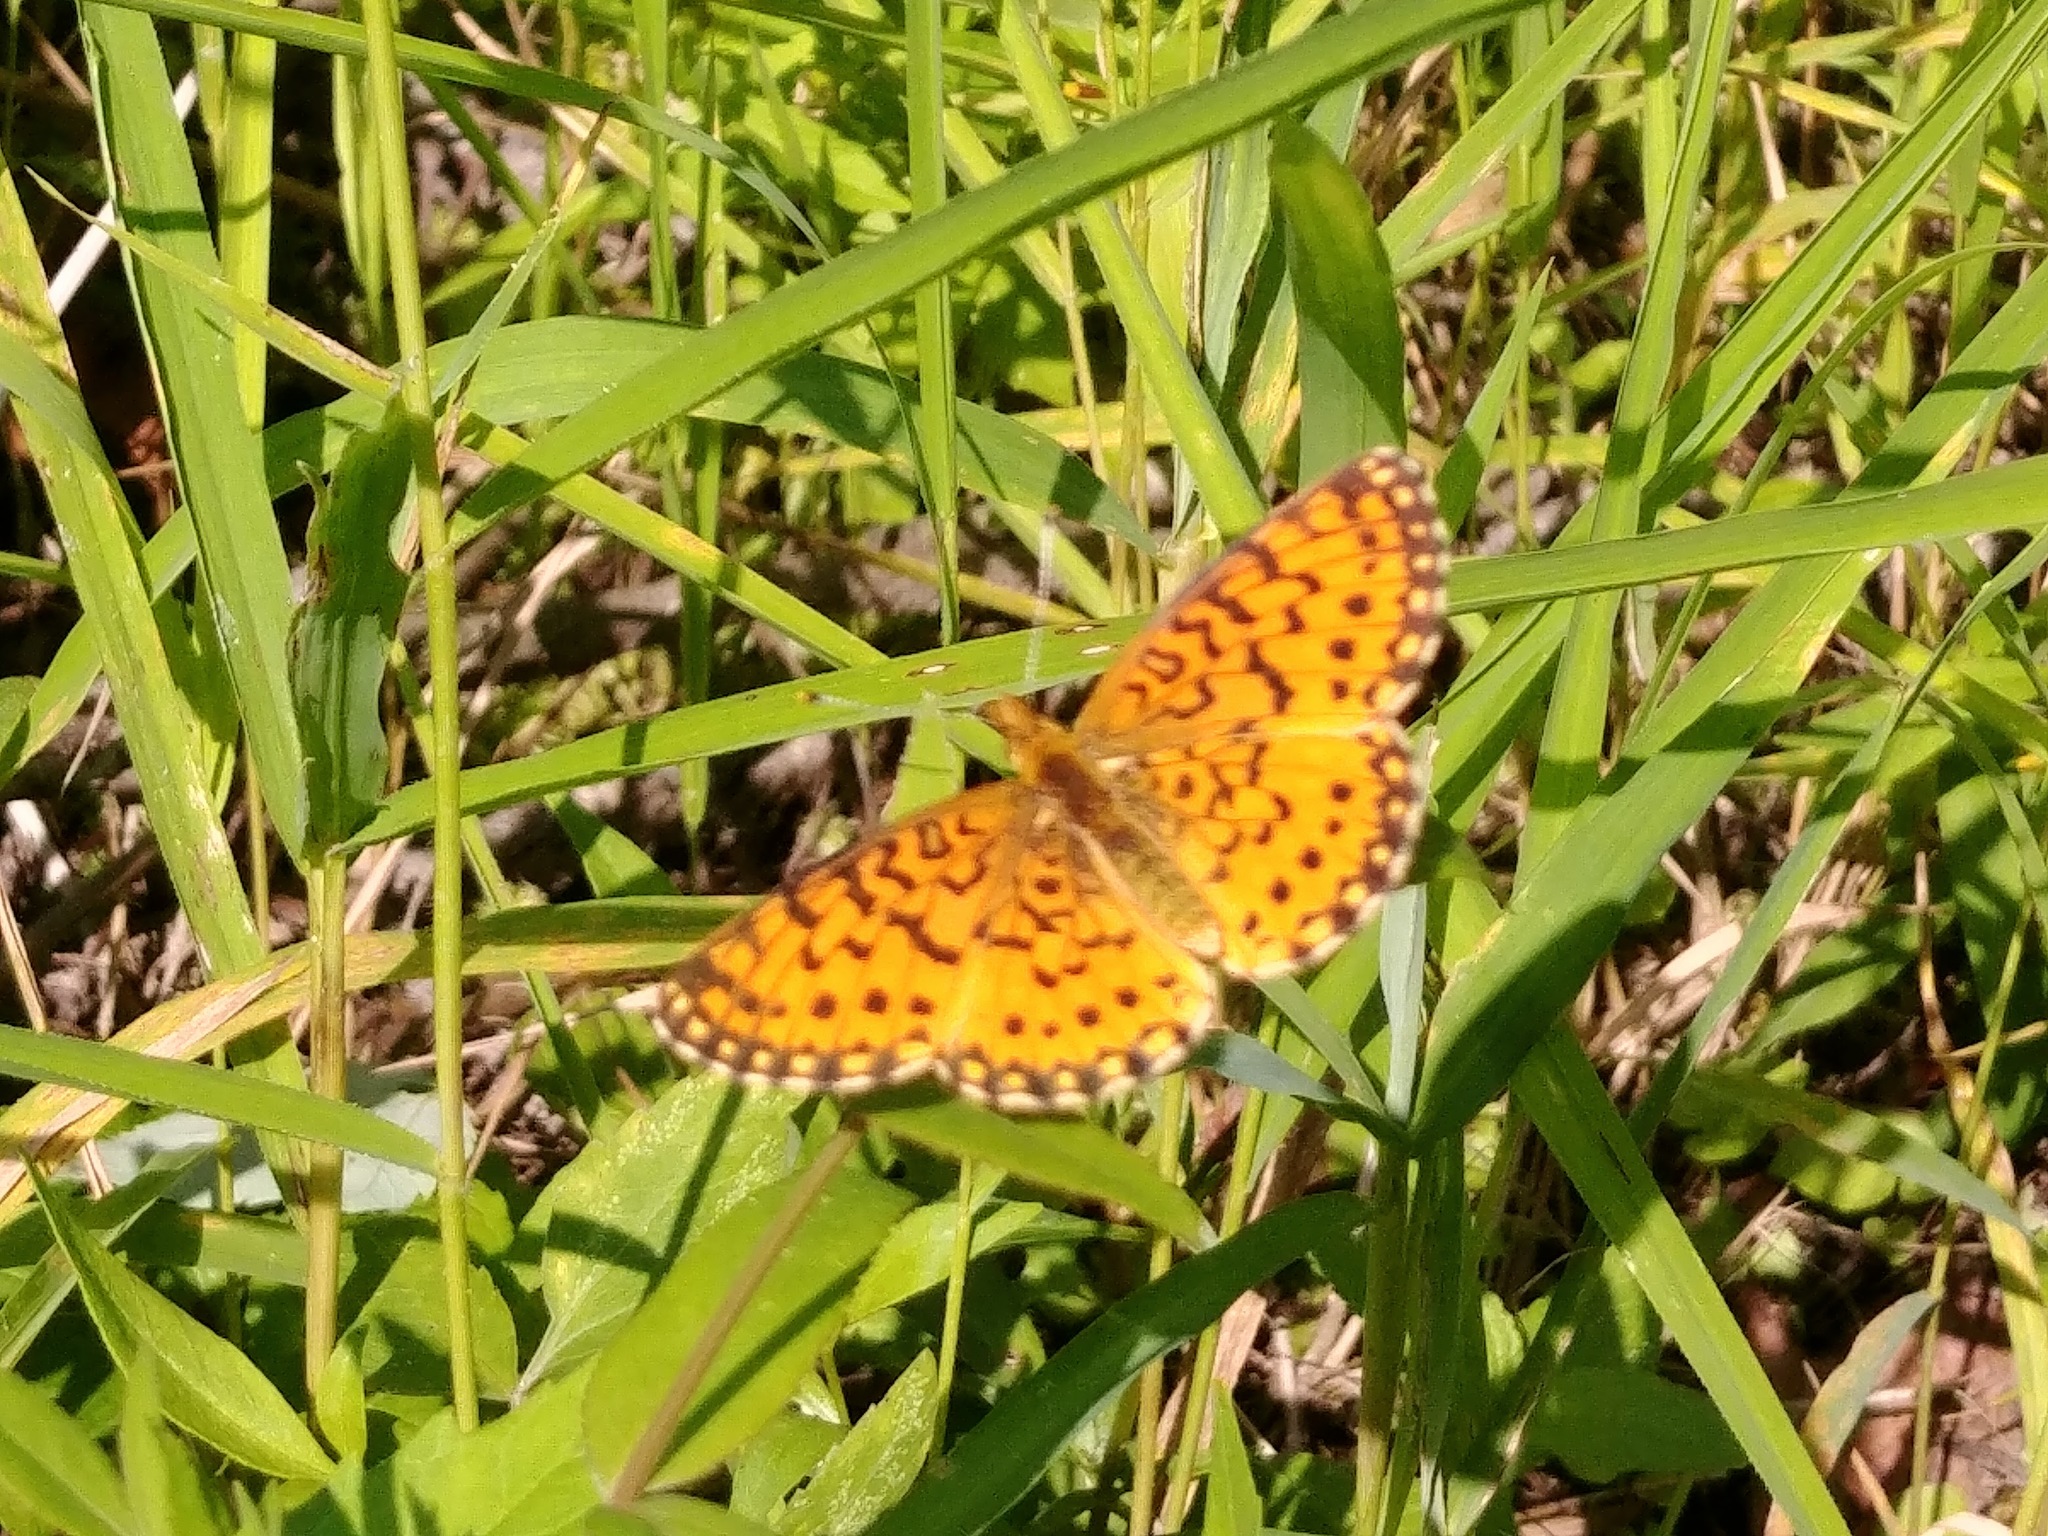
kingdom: Animalia
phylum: Arthropoda
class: Insecta
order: Lepidoptera
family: Nymphalidae
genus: Boloria
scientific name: Boloria
